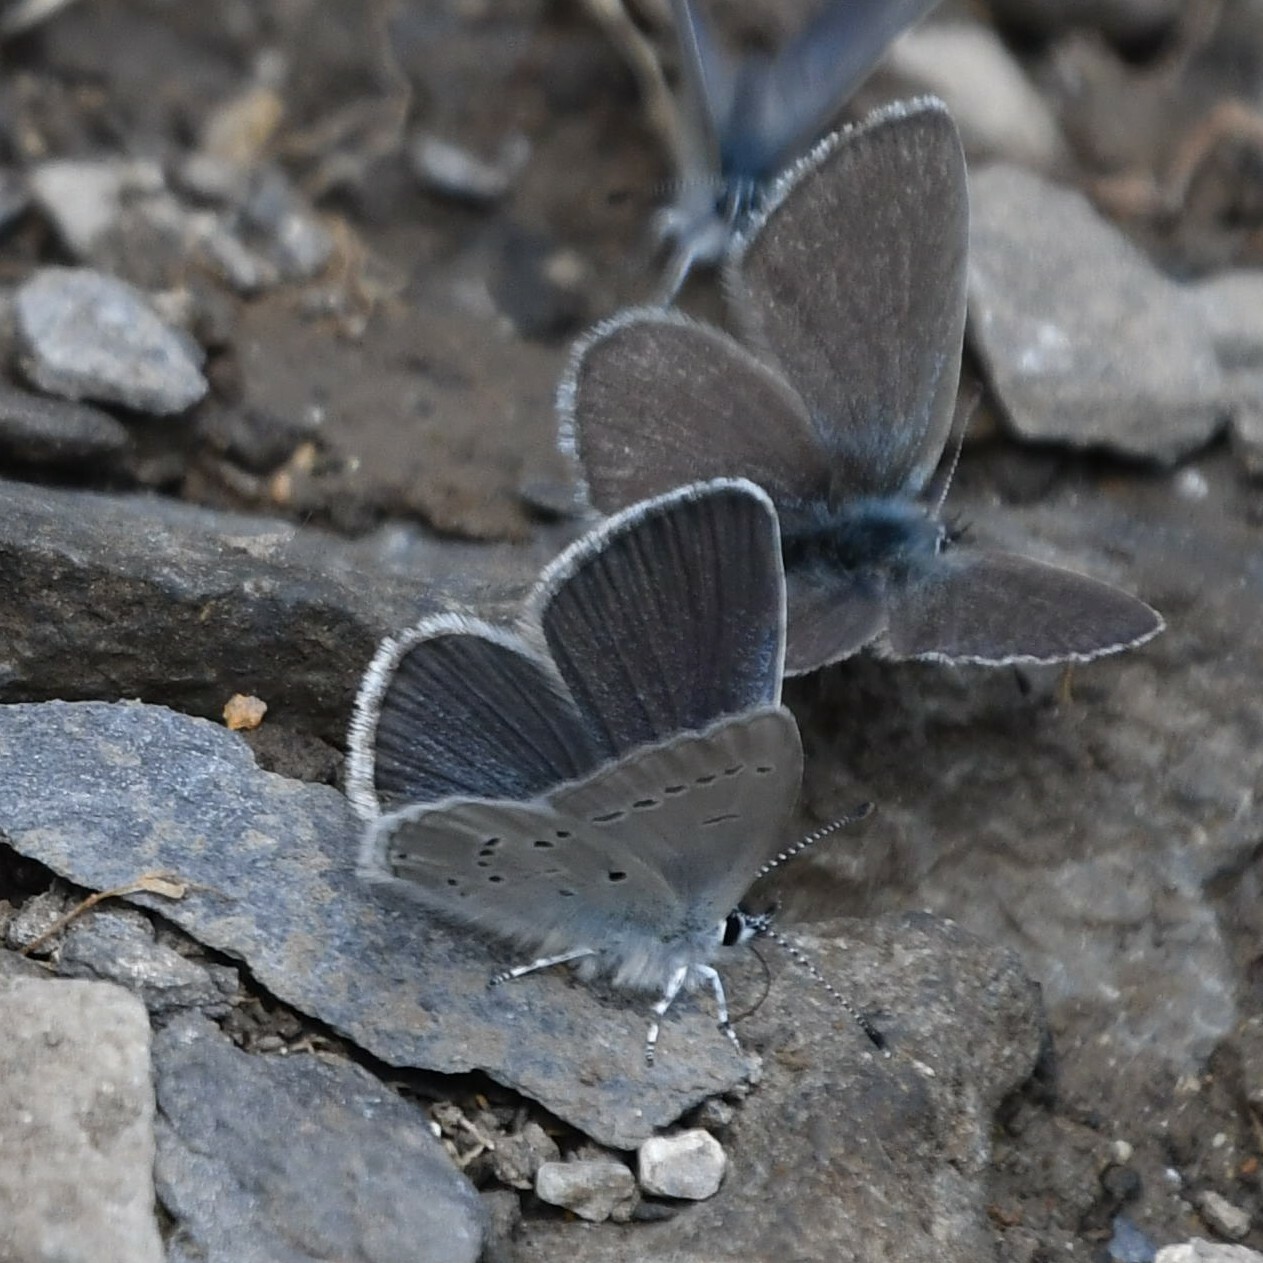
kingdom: Animalia
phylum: Arthropoda
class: Insecta
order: Lepidoptera
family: Lycaenidae
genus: Cupido
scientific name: Cupido minimus
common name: Small blue
